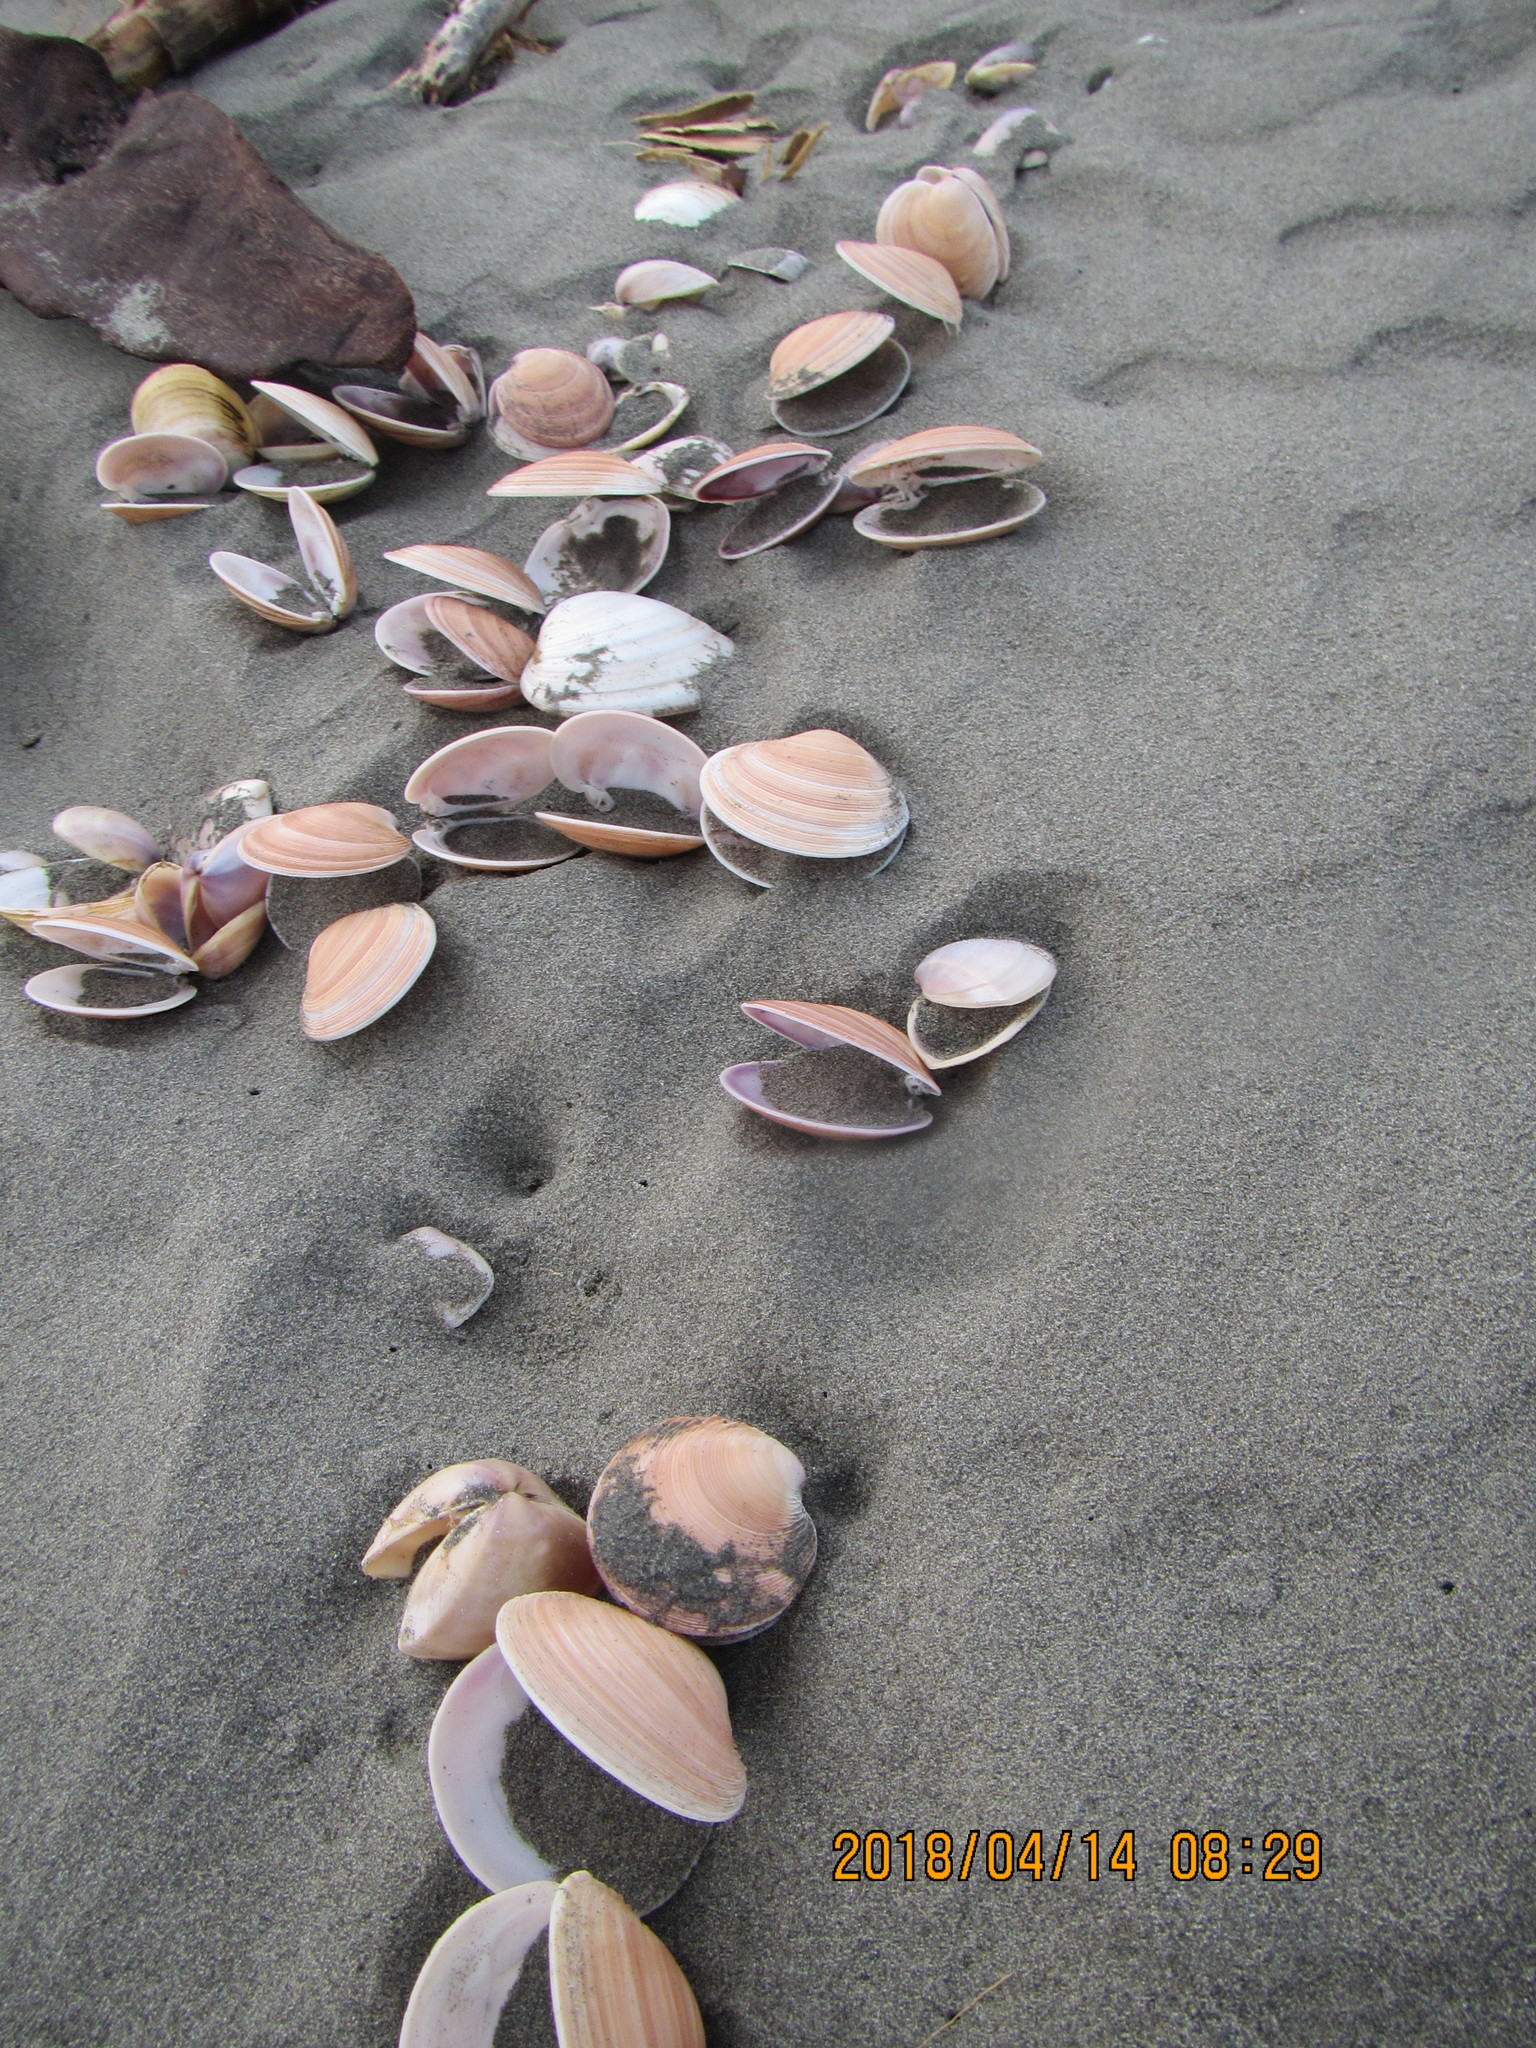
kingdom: Animalia
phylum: Mollusca
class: Bivalvia
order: Venerida
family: Veneridae
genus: Dosinia
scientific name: Dosinia anus
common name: Old-woman dosinia
